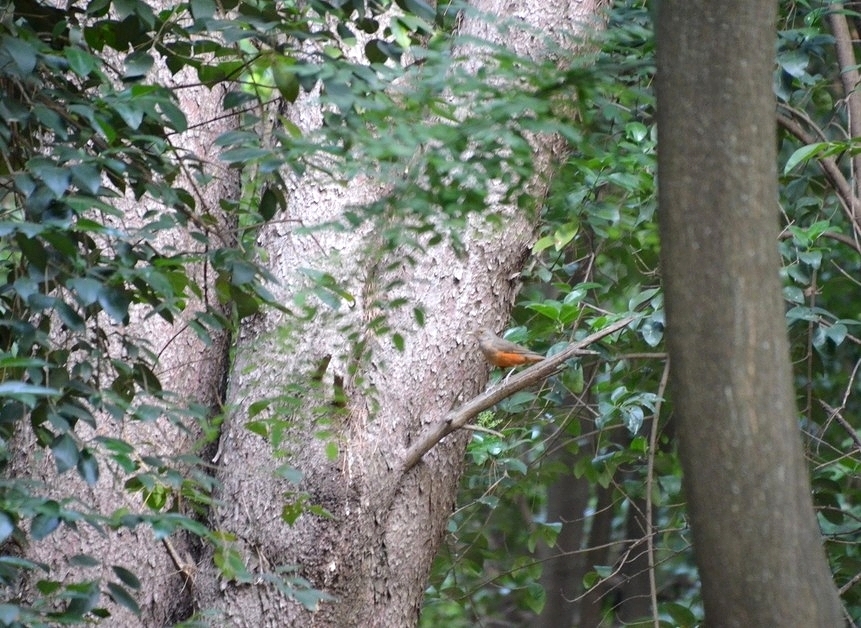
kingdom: Animalia
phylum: Chordata
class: Aves
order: Passeriformes
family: Turdidae
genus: Turdus
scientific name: Turdus rufiventris
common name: Rufous-bellied thrush
